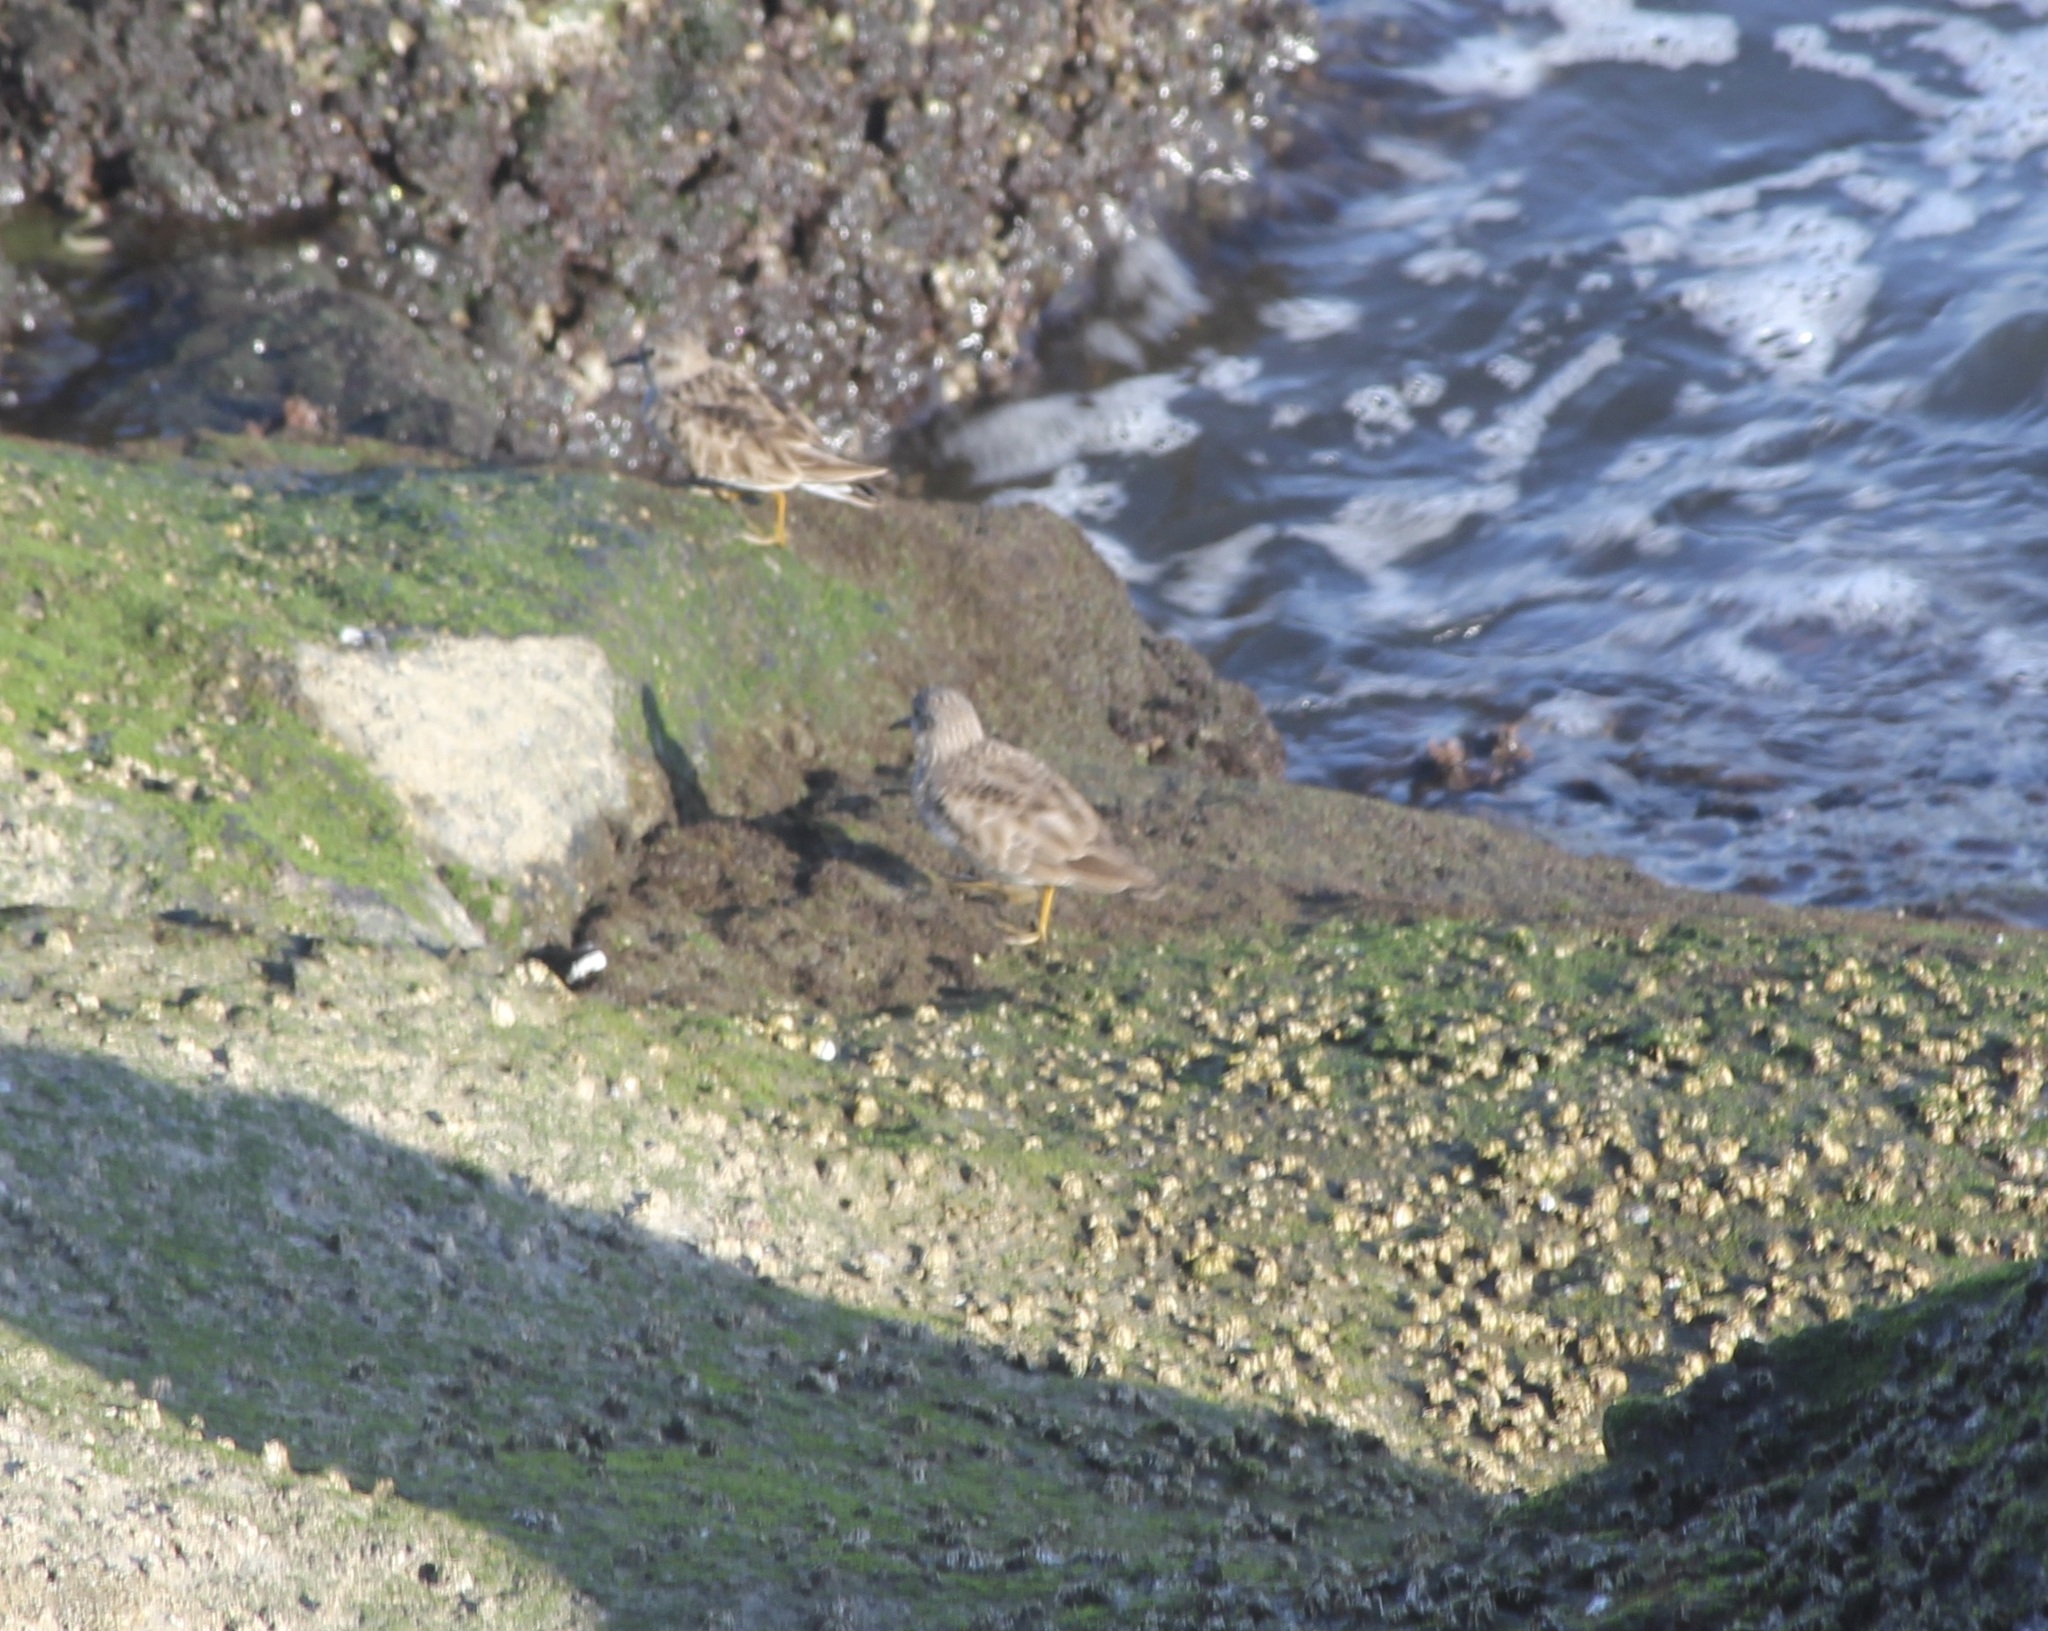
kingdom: Animalia
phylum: Chordata
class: Aves
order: Charadriiformes
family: Scolopacidae
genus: Calidris
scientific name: Calidris minutilla
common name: Least sandpiper
